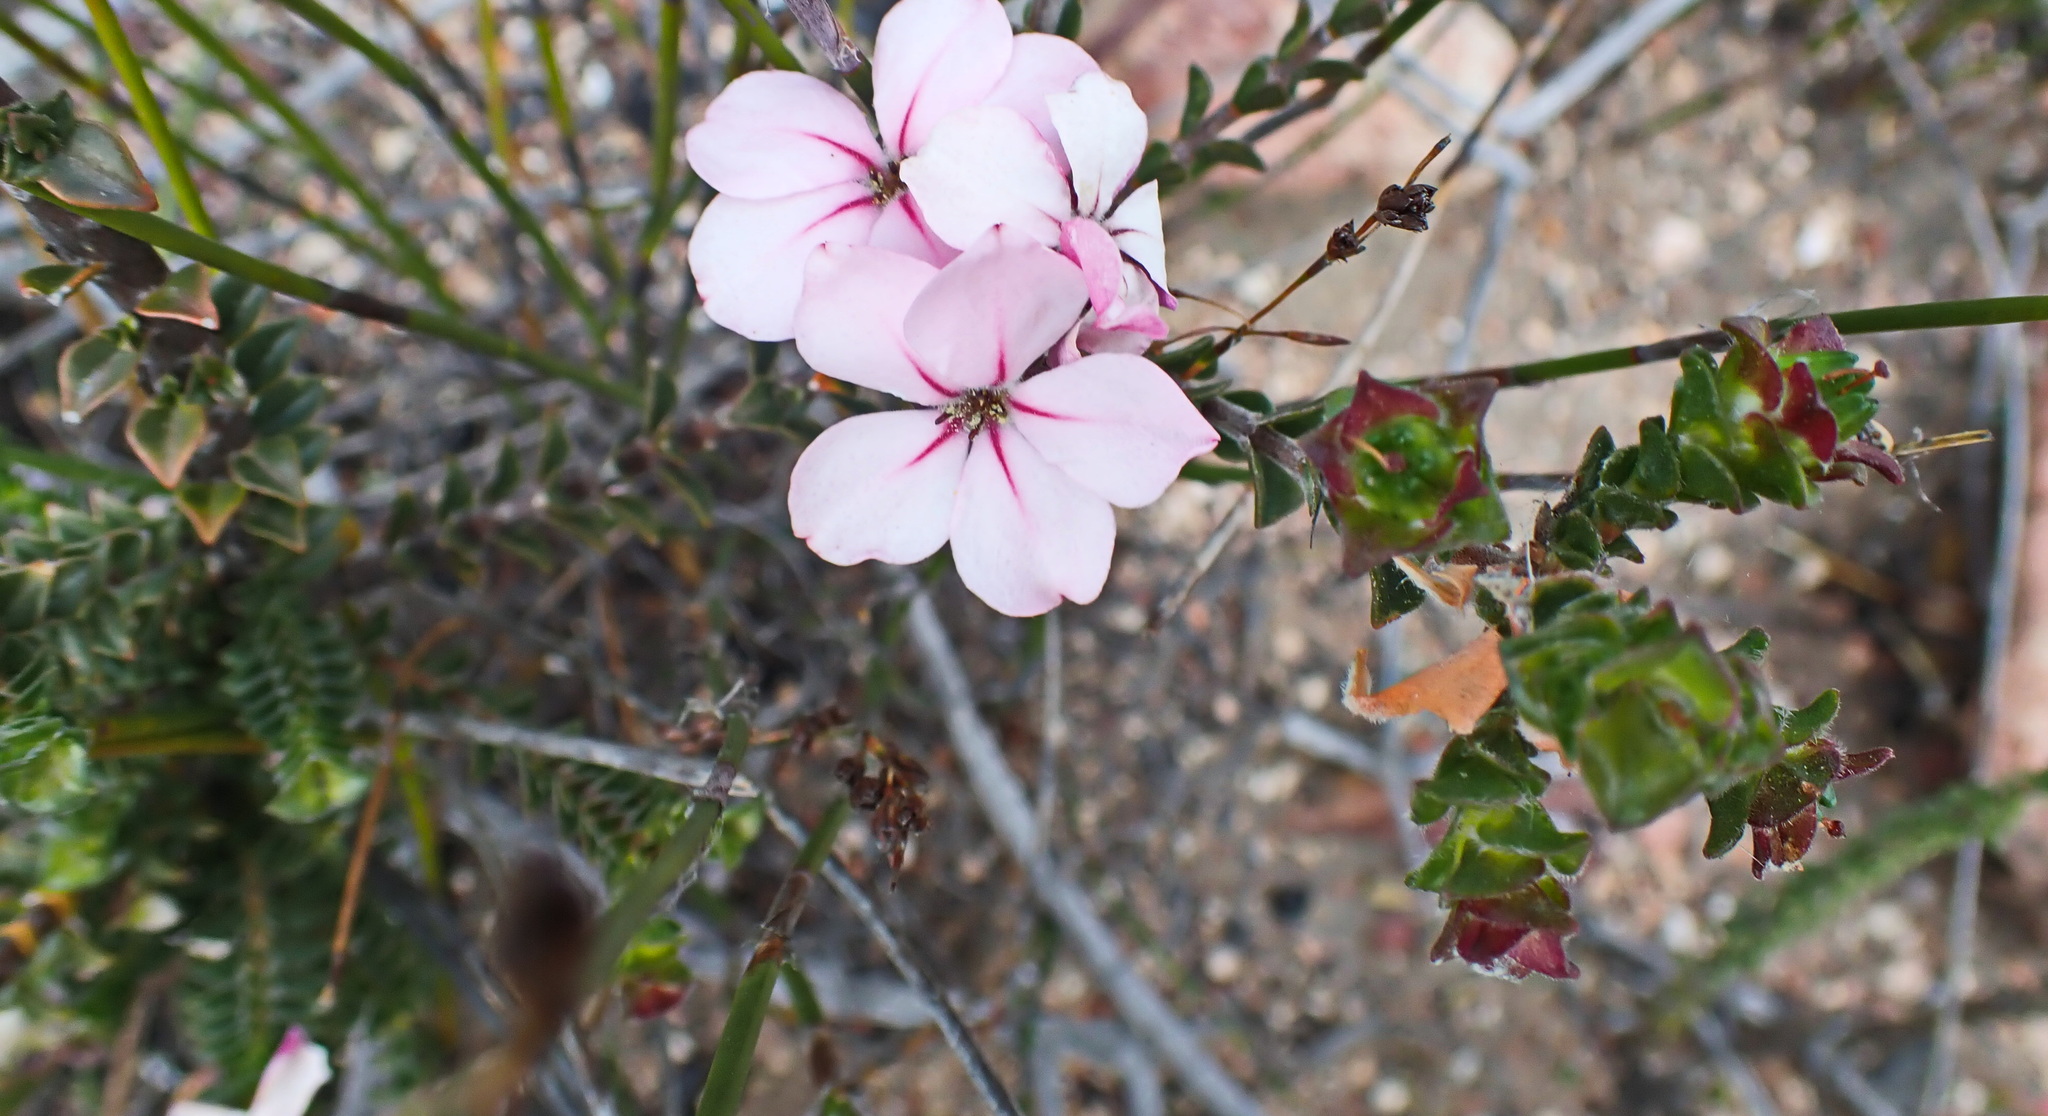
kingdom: Plantae
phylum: Tracheophyta
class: Magnoliopsida
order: Sapindales
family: Rutaceae
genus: Acmadenia
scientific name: Acmadenia tetragona
